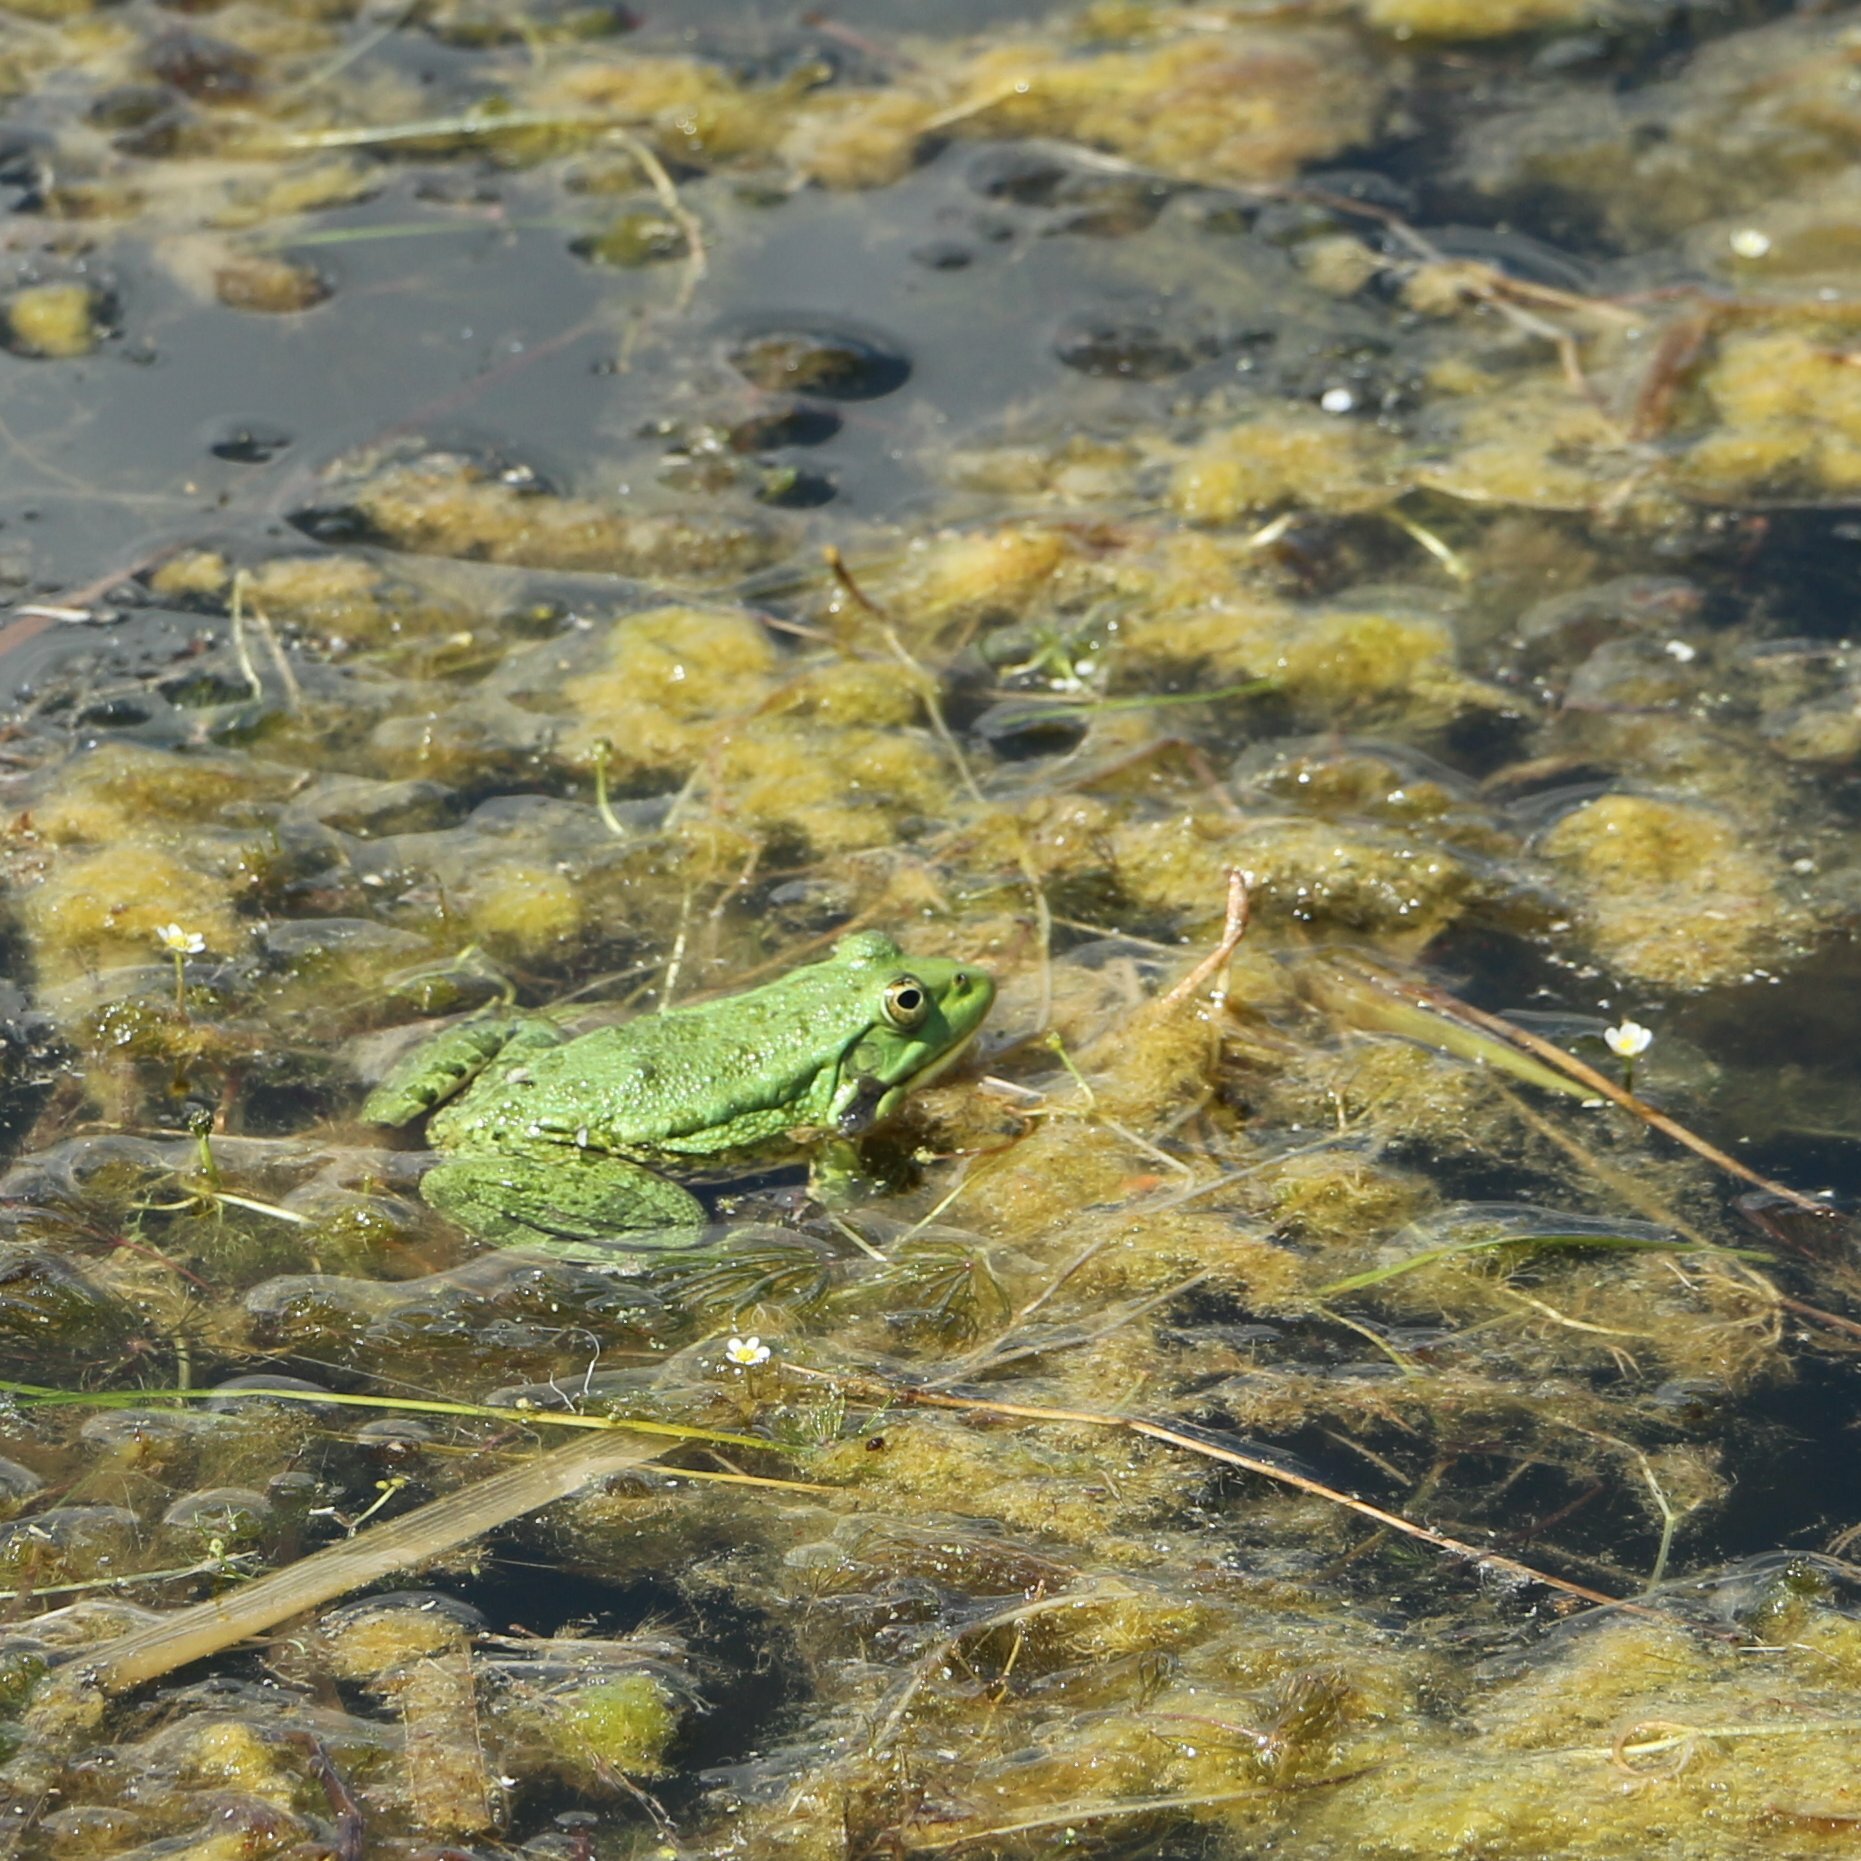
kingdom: Animalia
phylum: Chordata
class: Amphibia
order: Anura
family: Ranidae
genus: Pelophylax
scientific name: Pelophylax ridibundus
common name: Marsh frog
